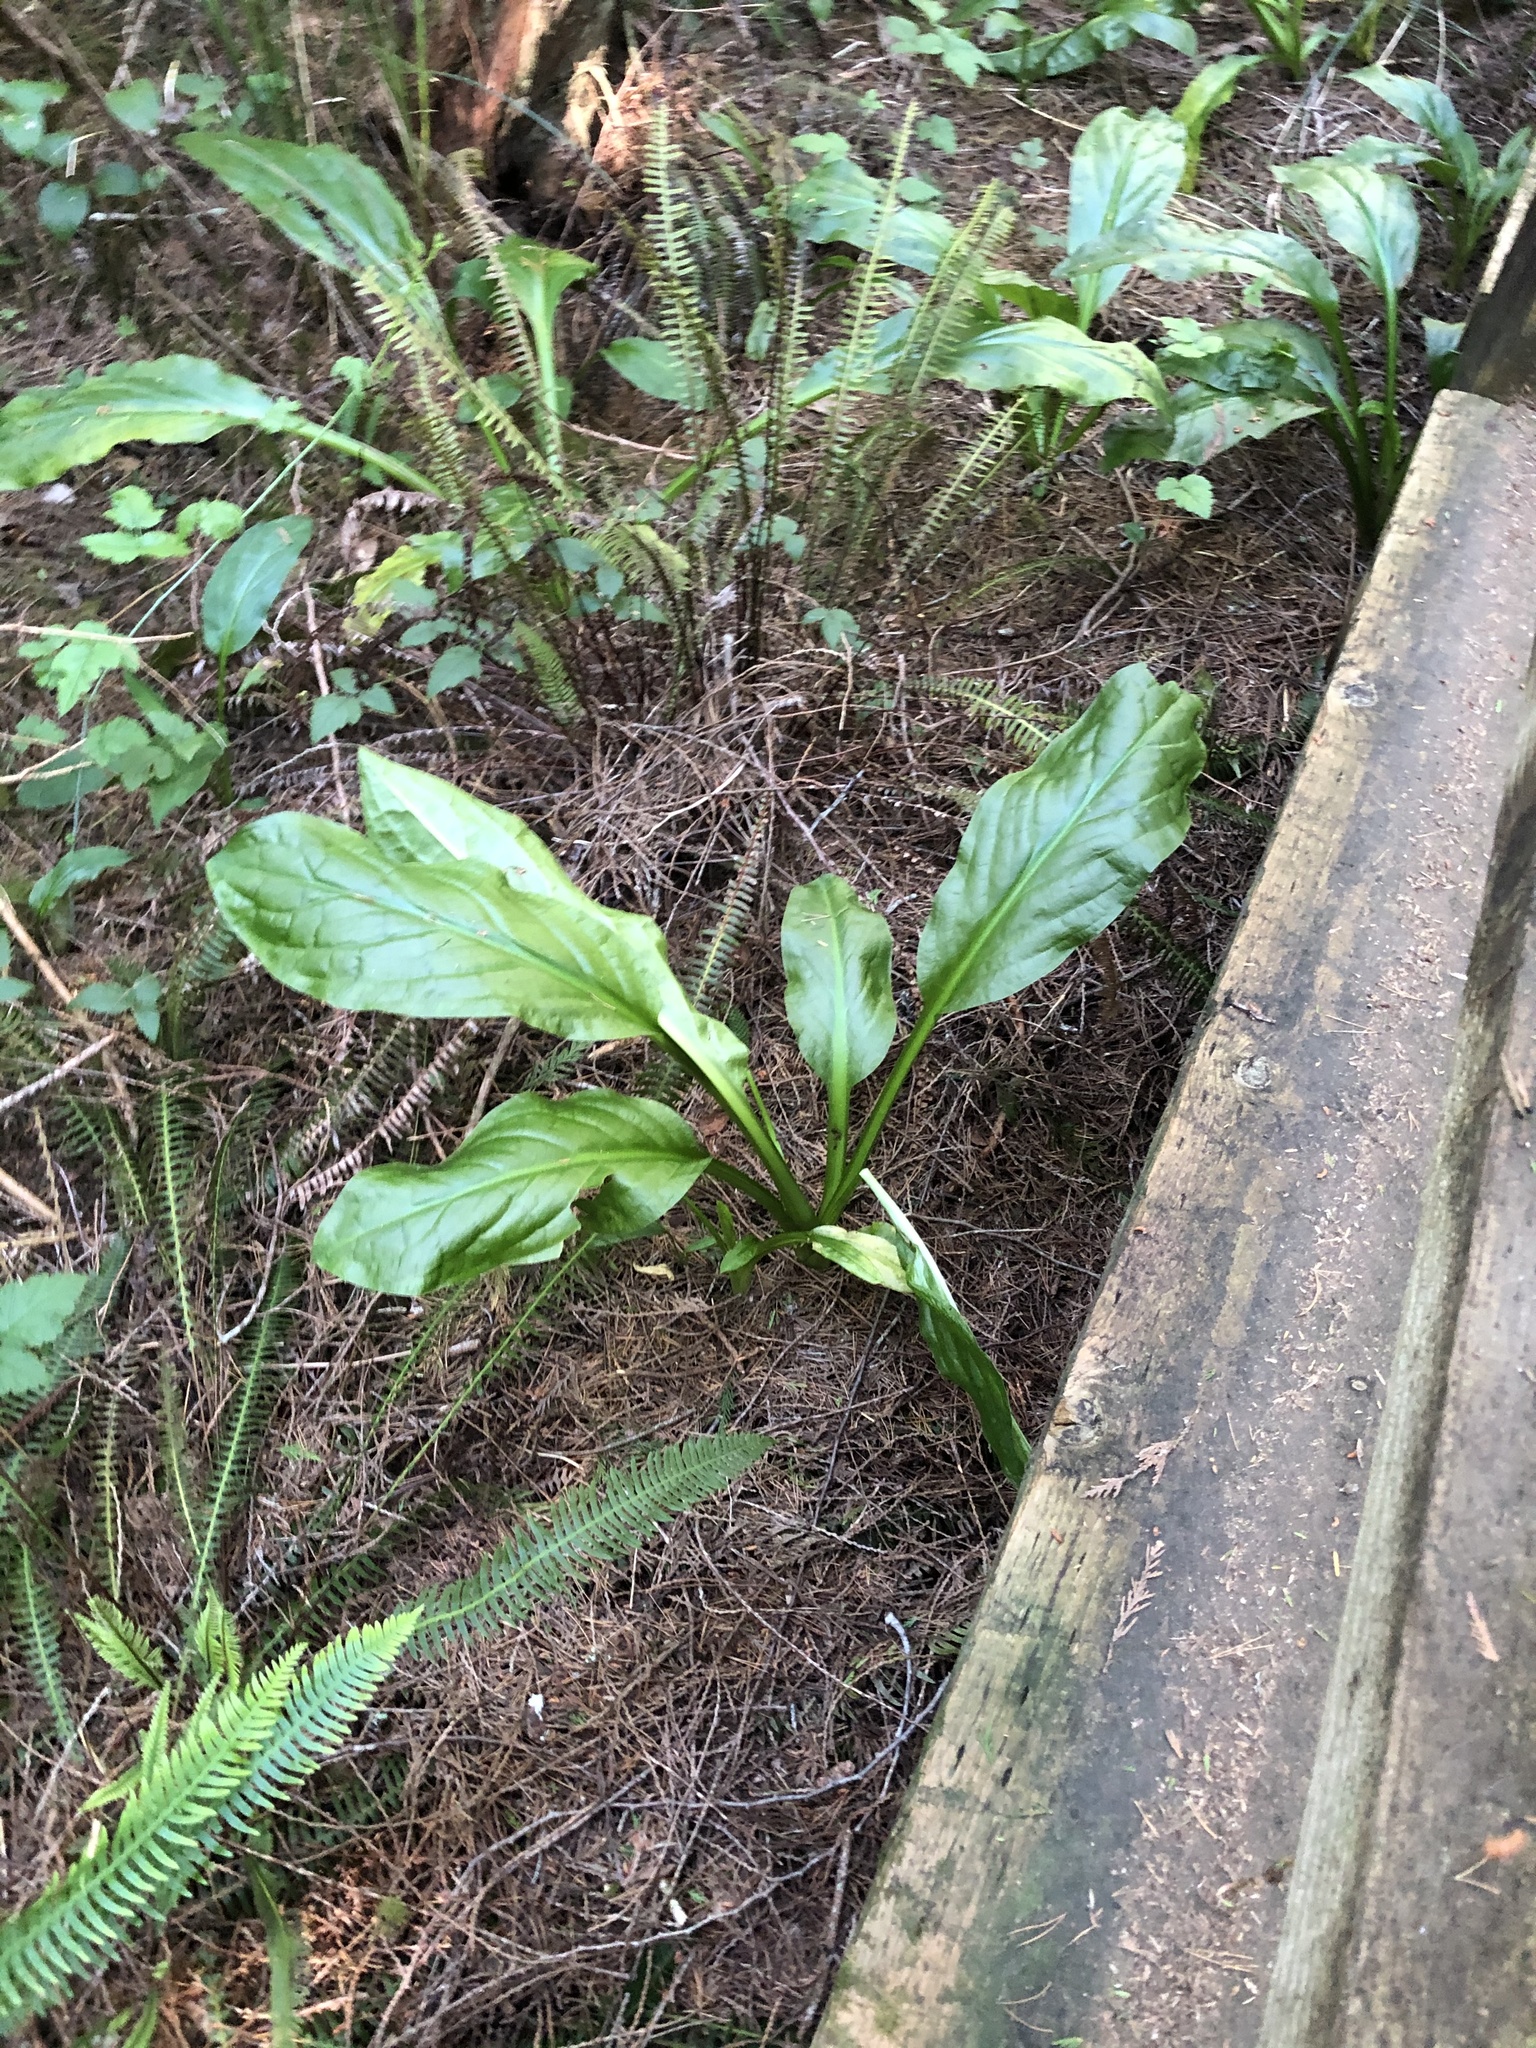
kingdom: Plantae
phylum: Tracheophyta
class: Liliopsida
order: Alismatales
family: Araceae
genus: Lysichiton
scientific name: Lysichiton americanus
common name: American skunk cabbage
